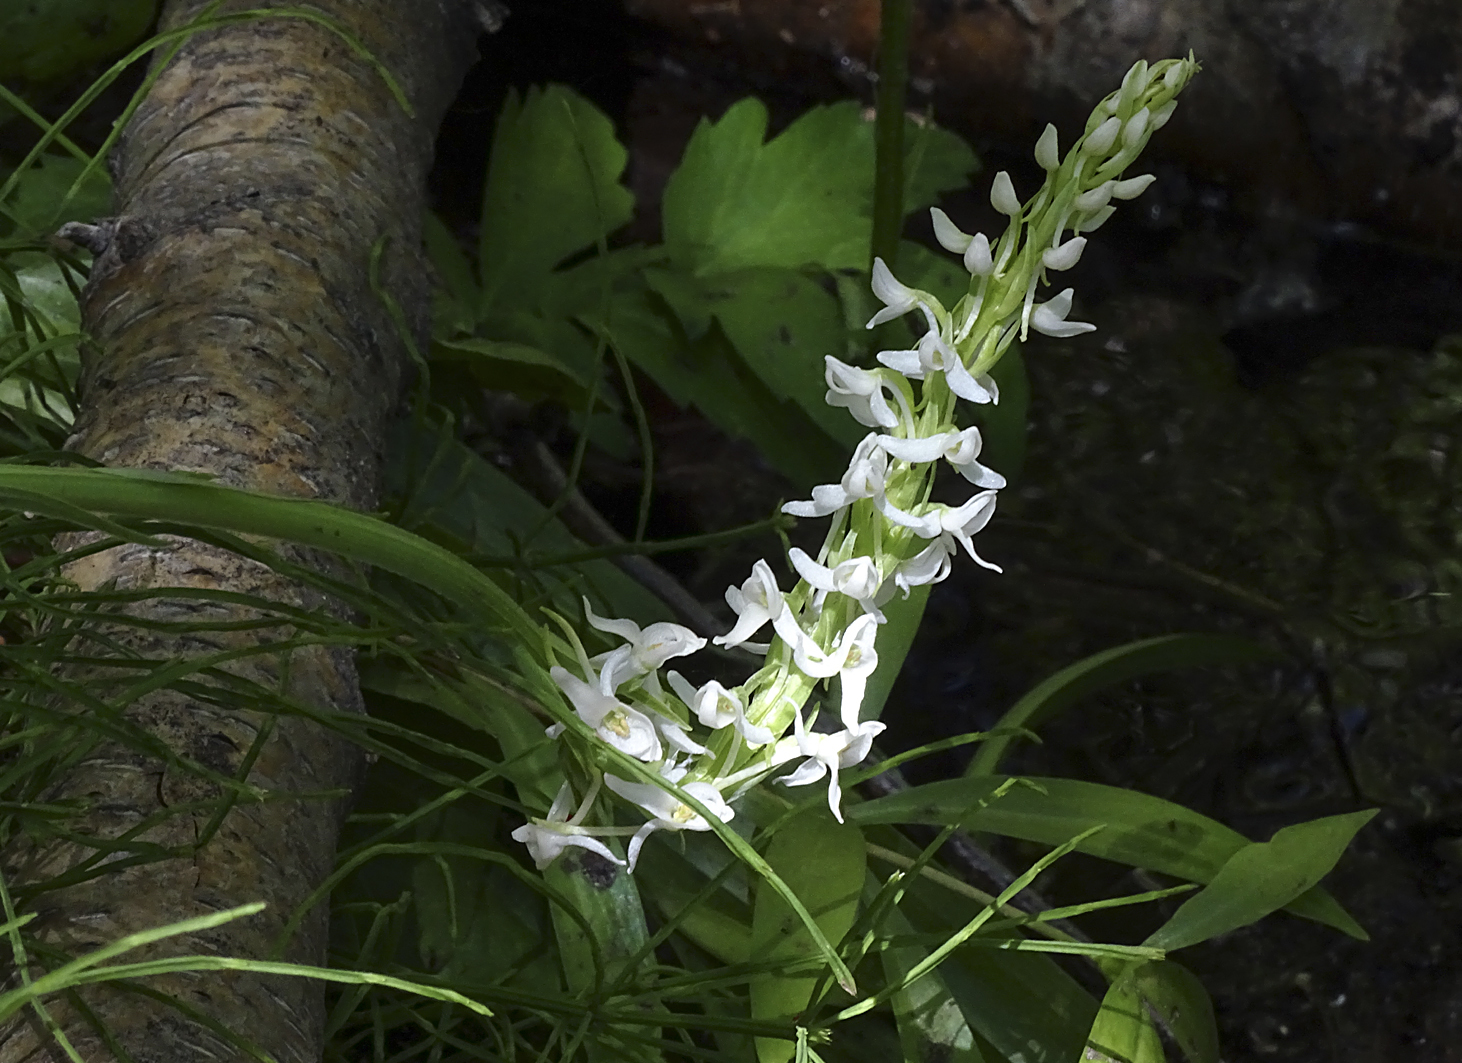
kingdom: Plantae
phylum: Tracheophyta
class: Liliopsida
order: Asparagales
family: Orchidaceae
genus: Platanthera
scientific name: Platanthera dilatata
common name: Bog candles
